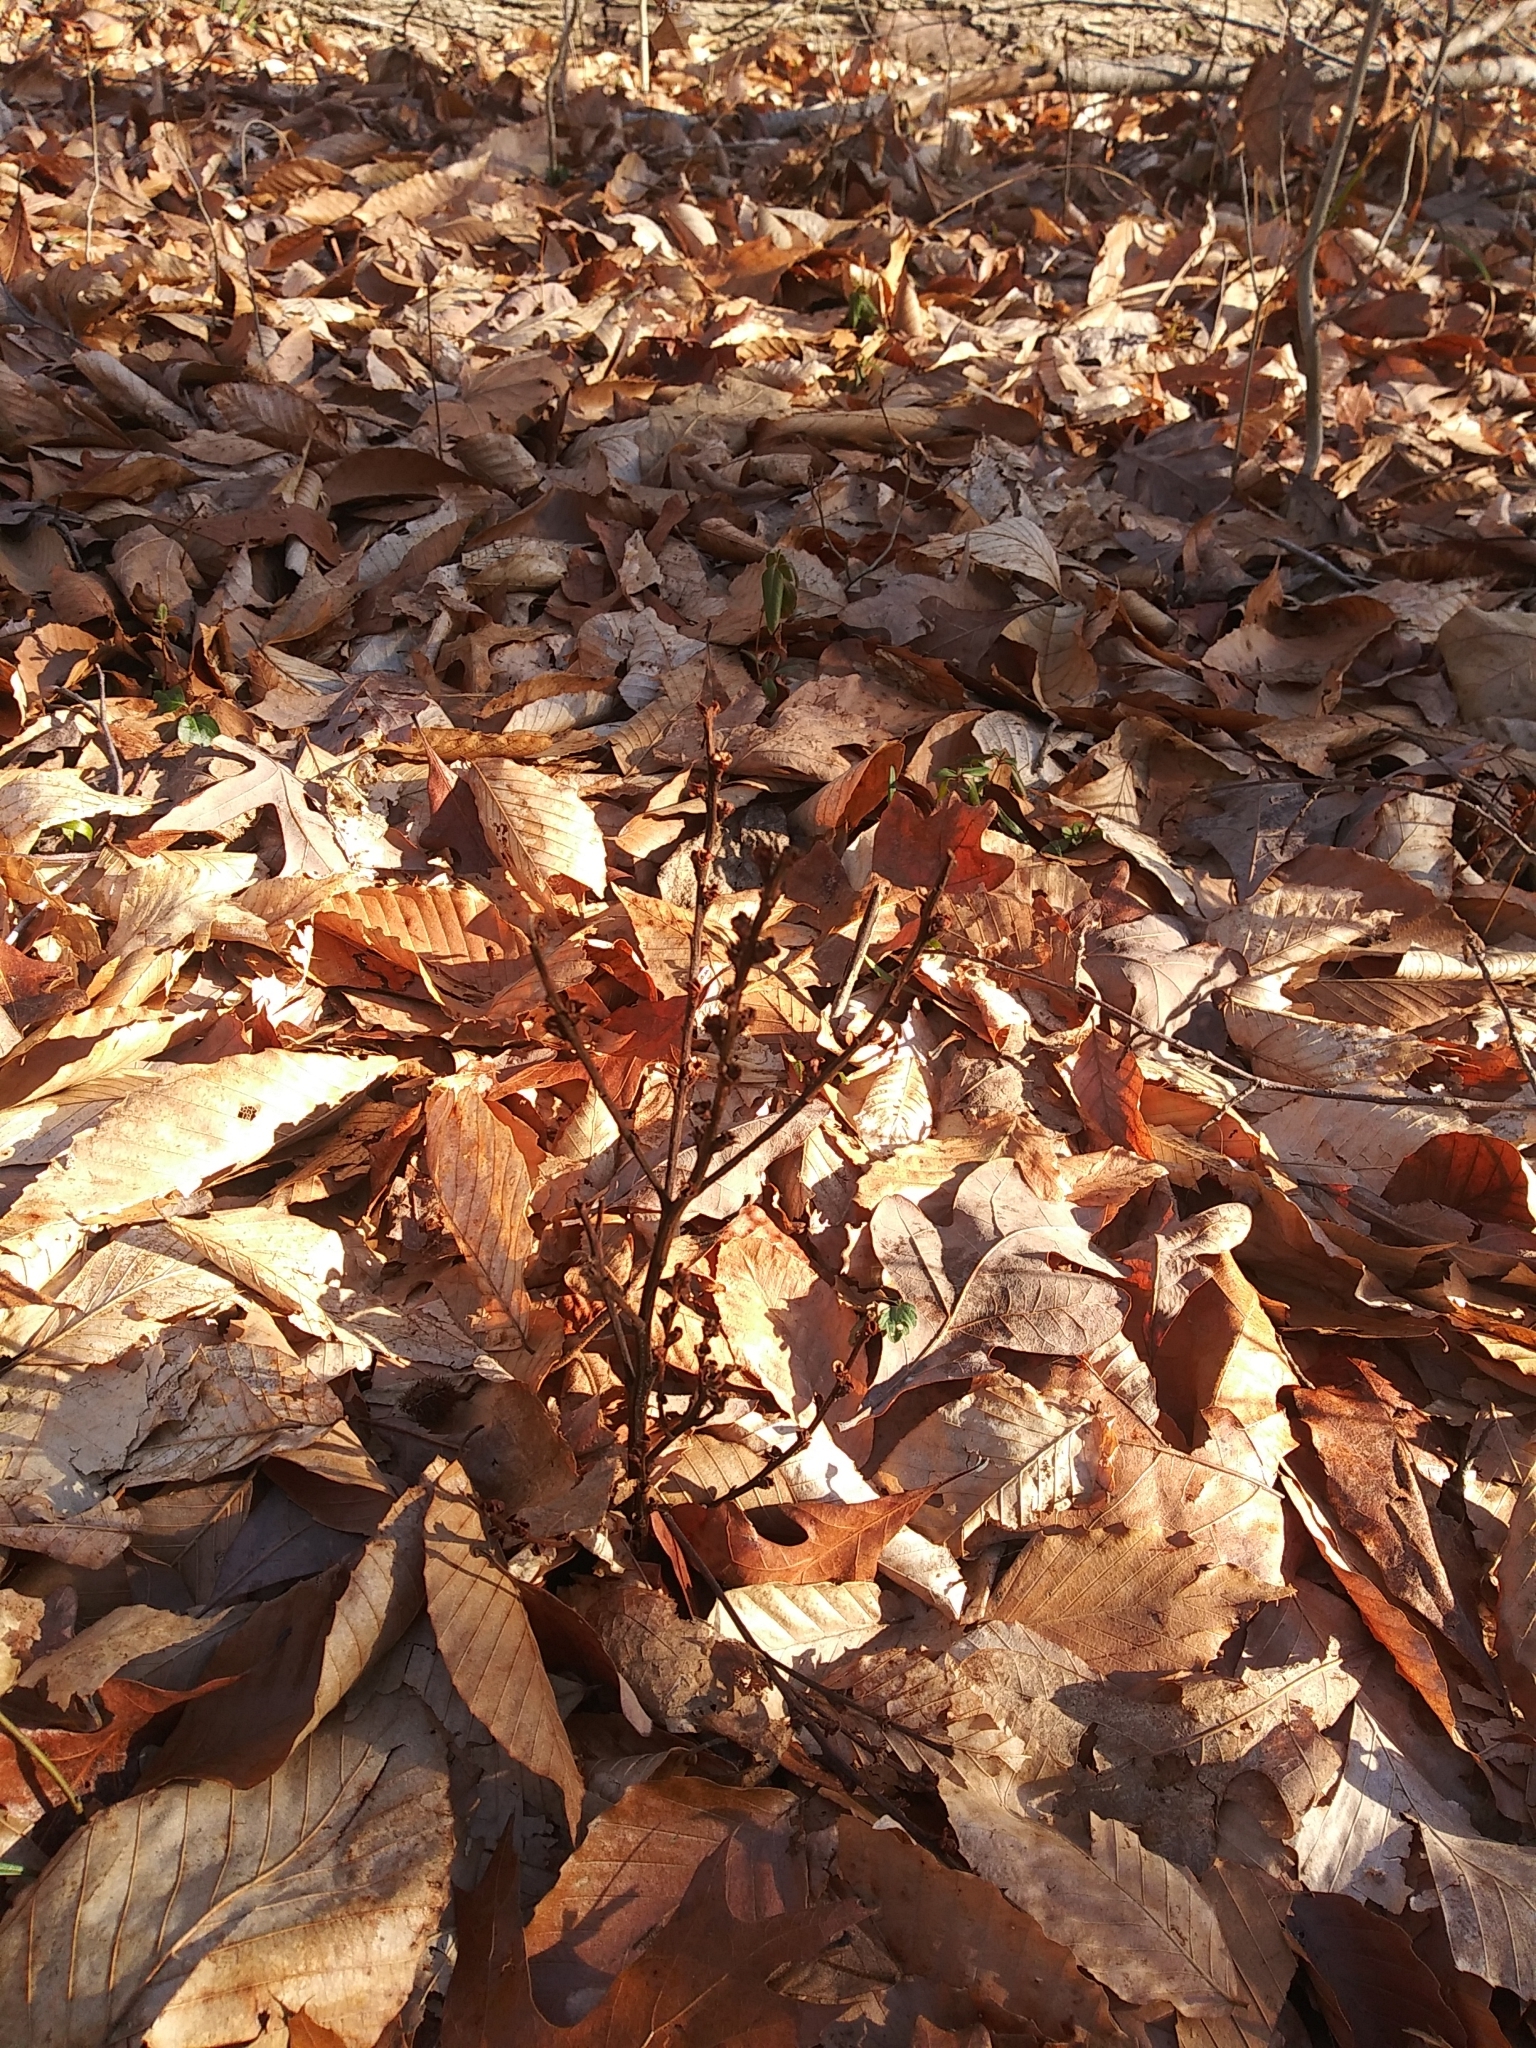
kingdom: Plantae
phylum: Tracheophyta
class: Magnoliopsida
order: Lamiales
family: Orobanchaceae
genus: Epifagus
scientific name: Epifagus virginiana
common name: Beechdrops
